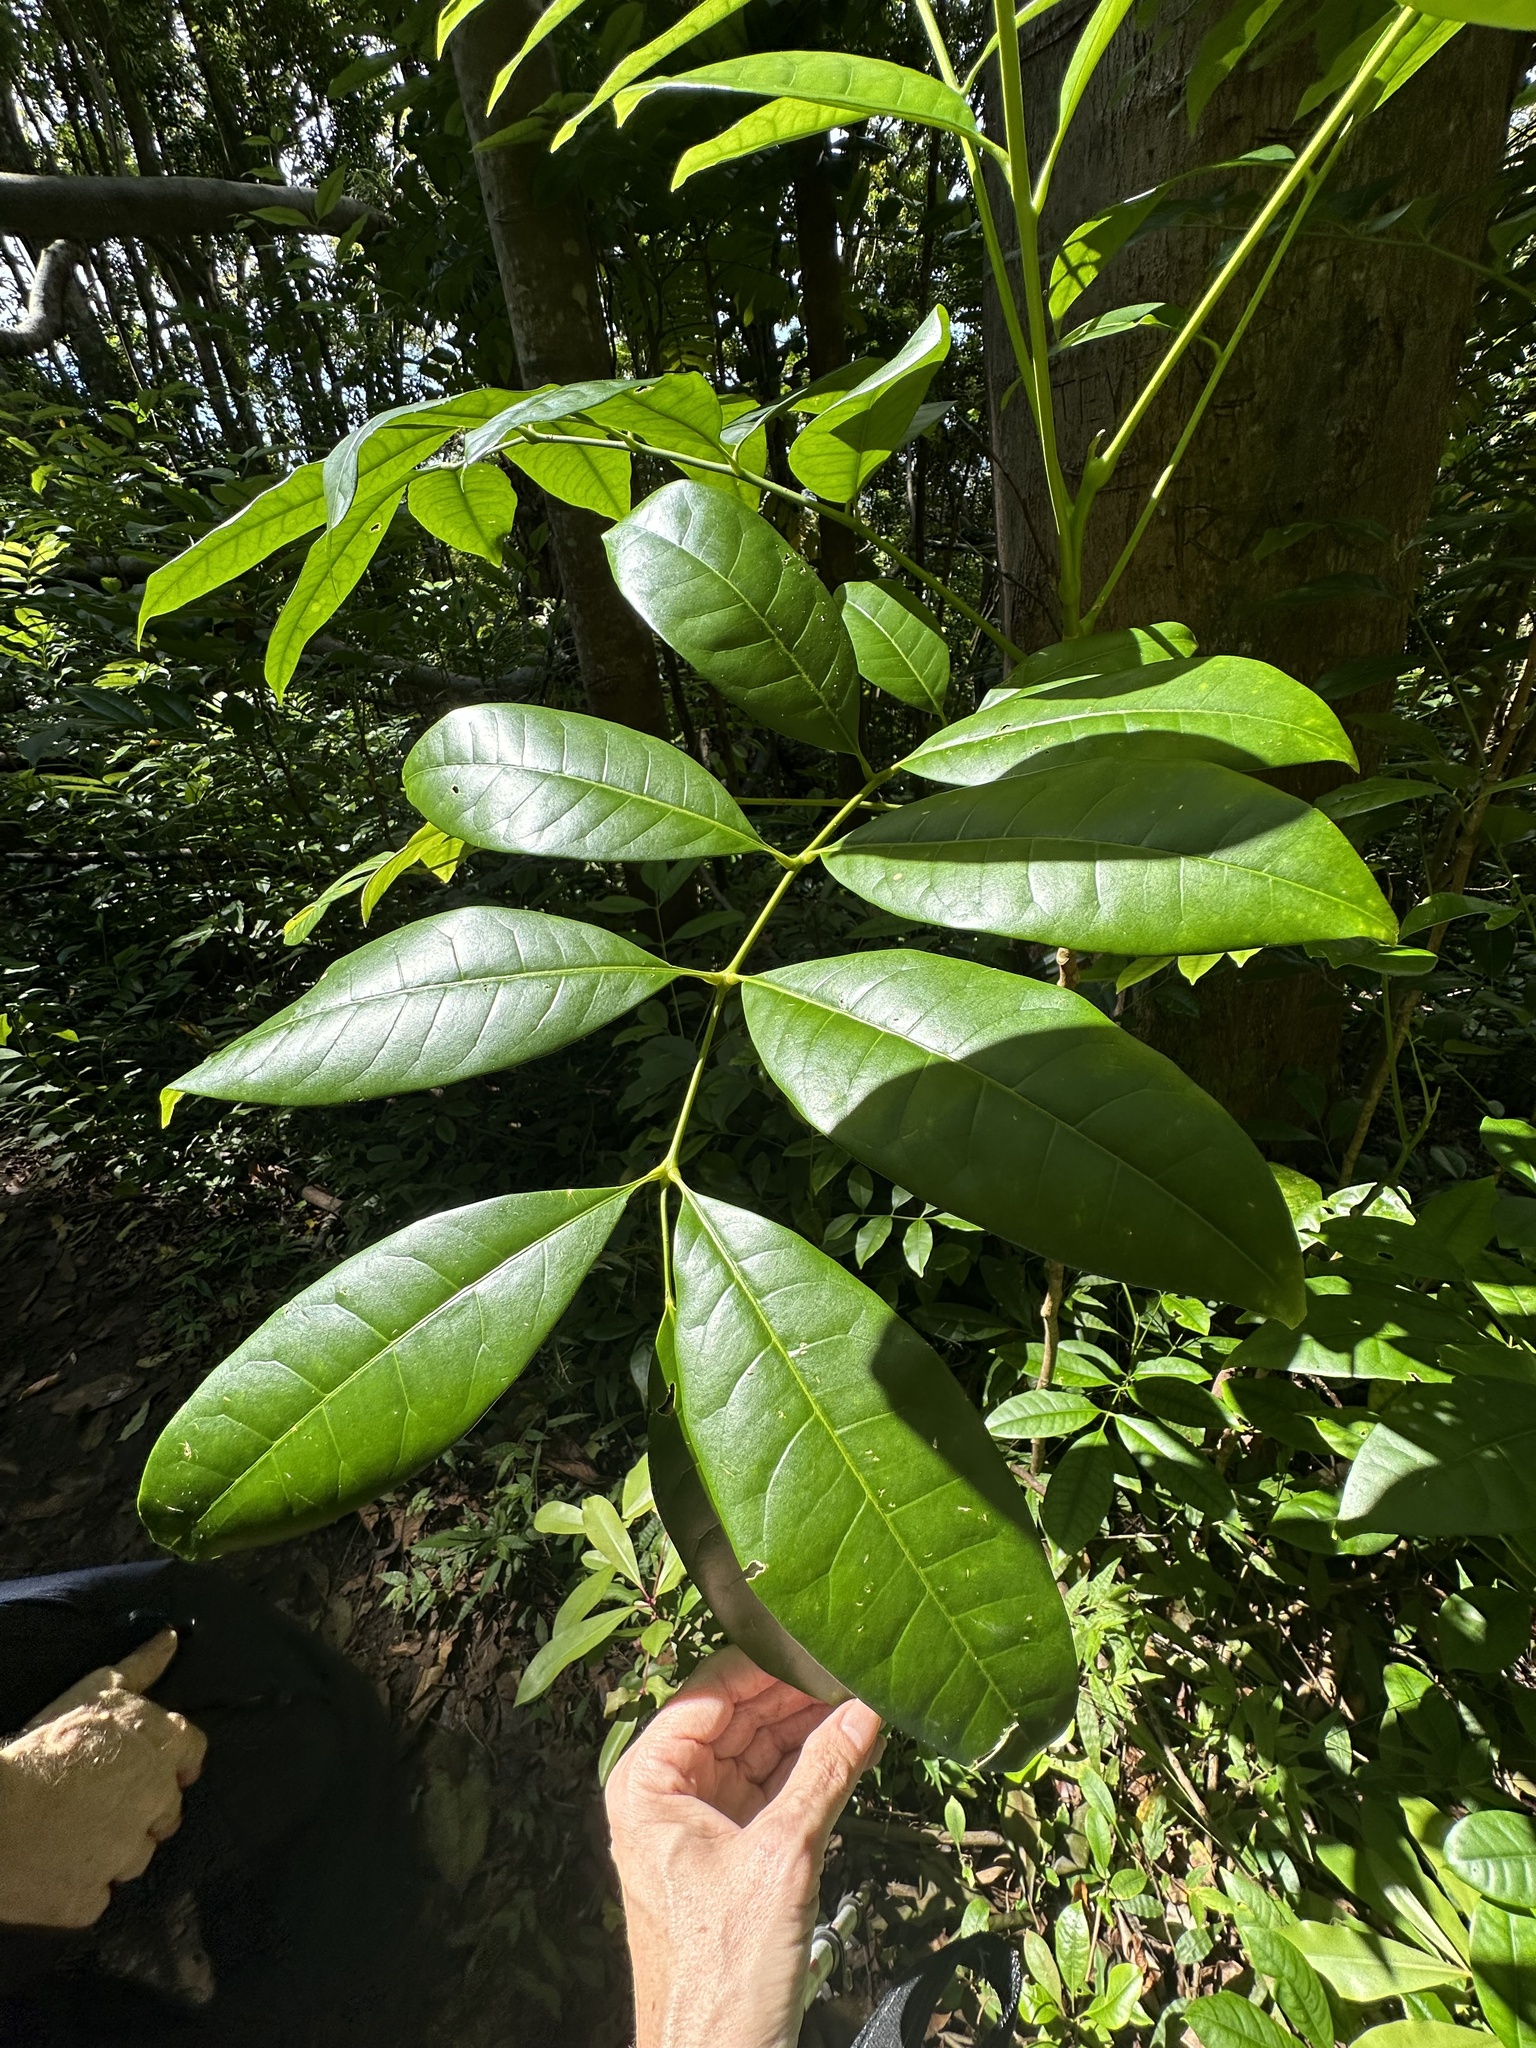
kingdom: Plantae
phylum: Tracheophyta
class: Magnoliopsida
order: Sapindales
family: Rutaceae
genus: Flindersia
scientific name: Flindersia brayleyana
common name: Queensland maple
